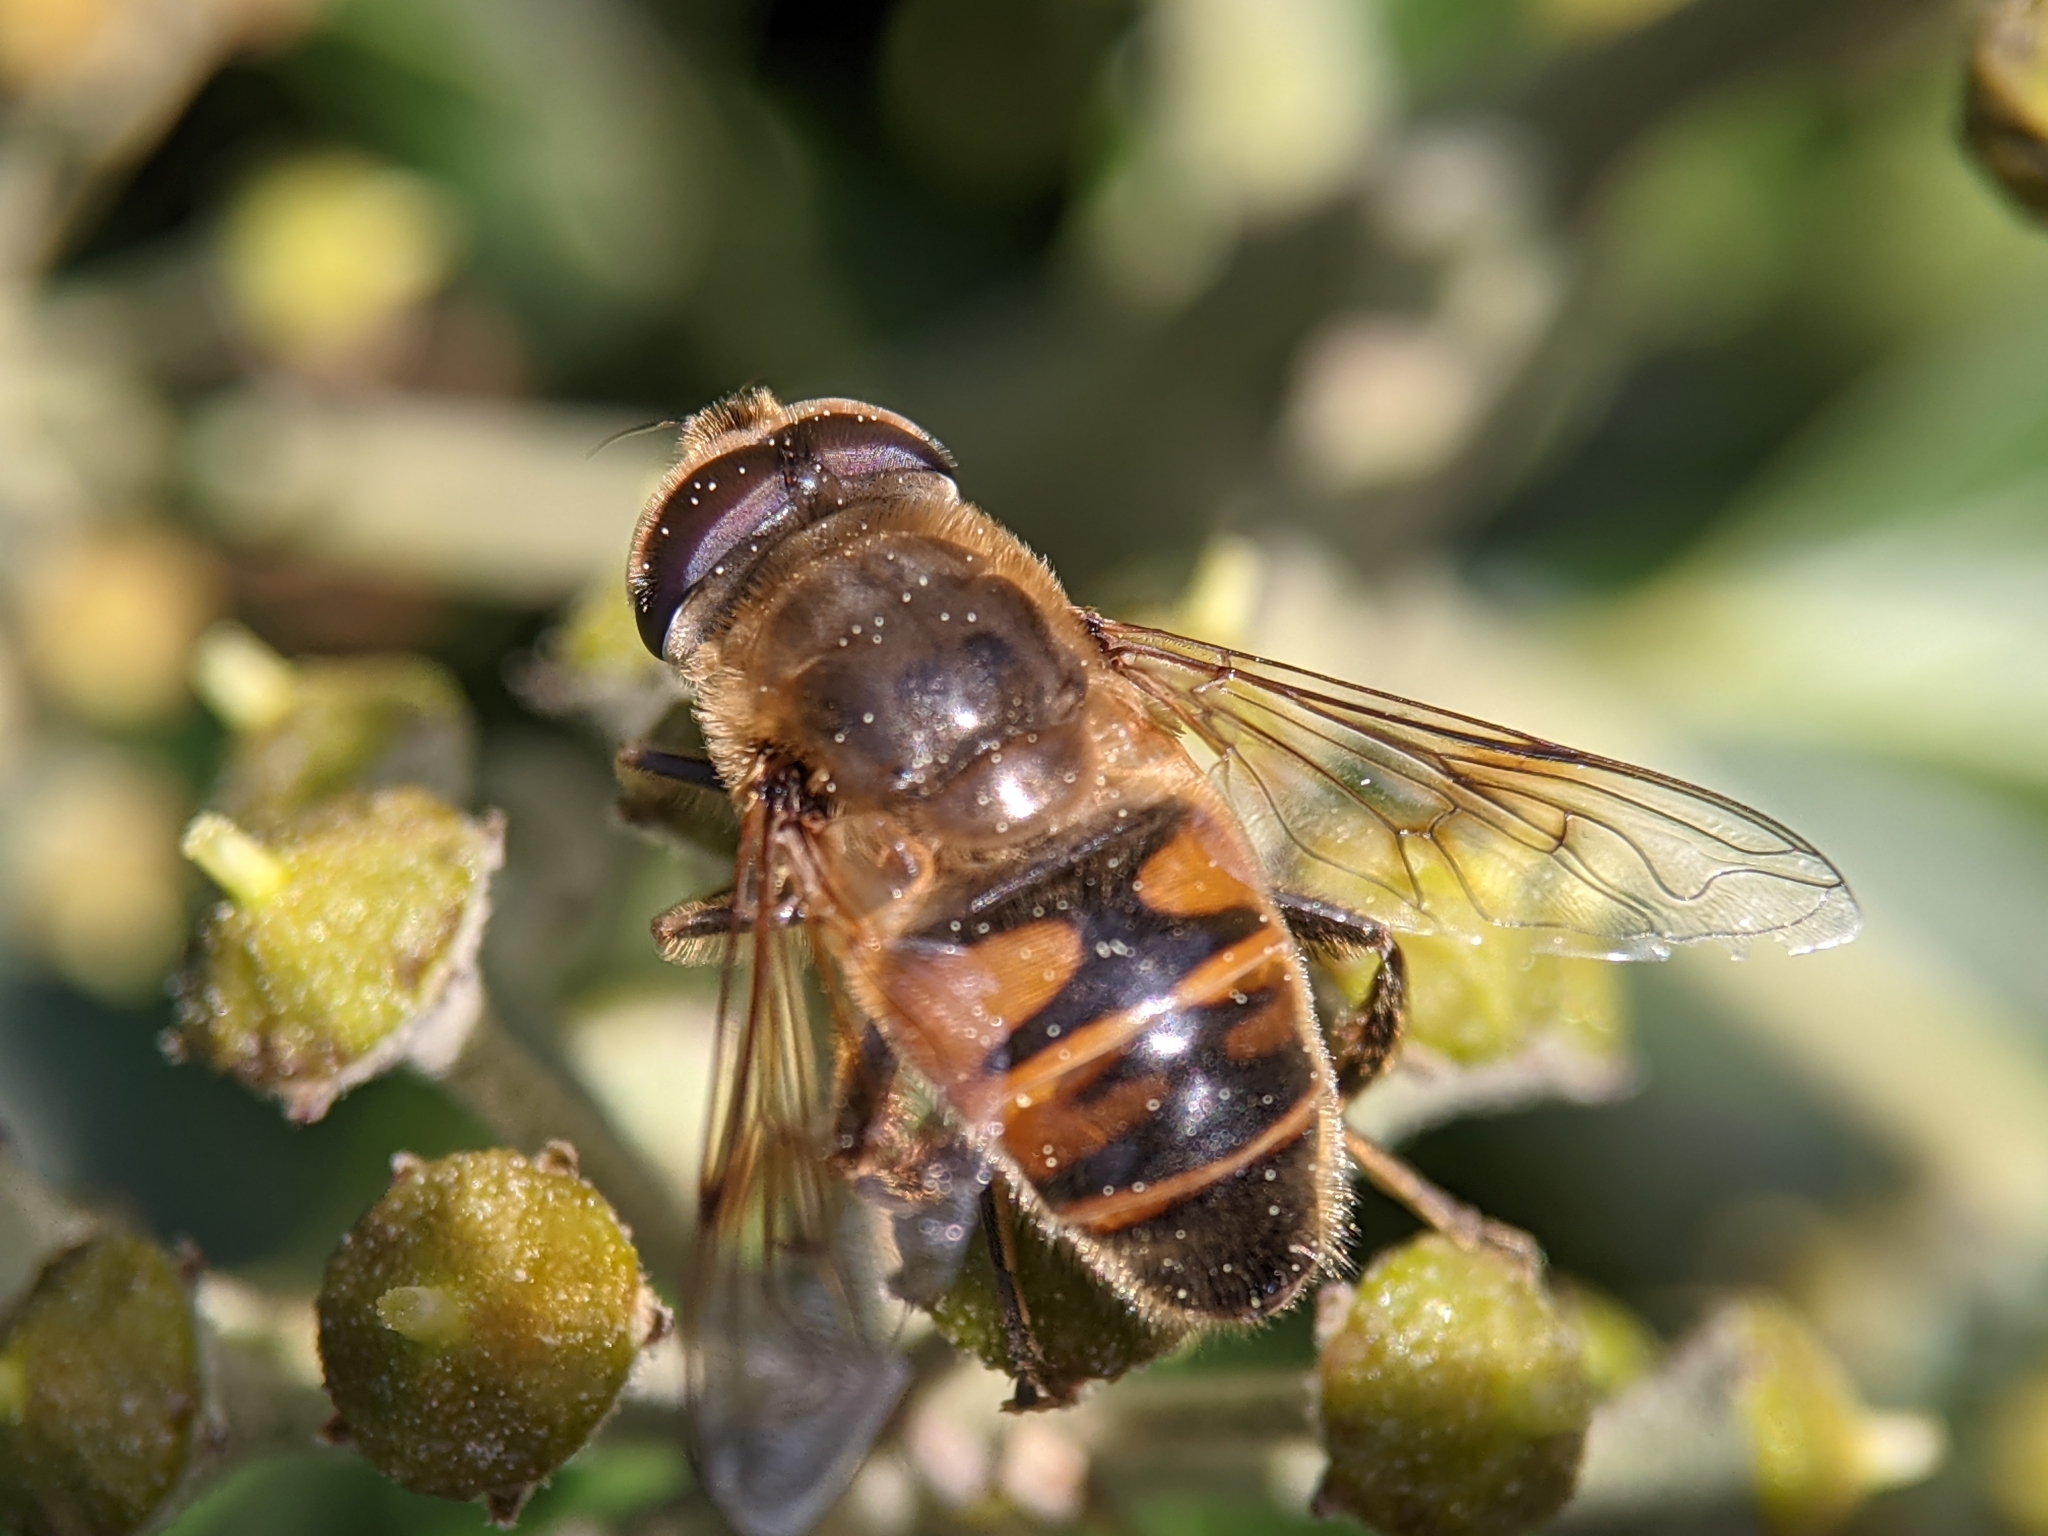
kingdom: Animalia
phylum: Arthropoda
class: Insecta
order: Diptera
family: Syrphidae
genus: Eristalis
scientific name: Eristalis tenax
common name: Drone fly
